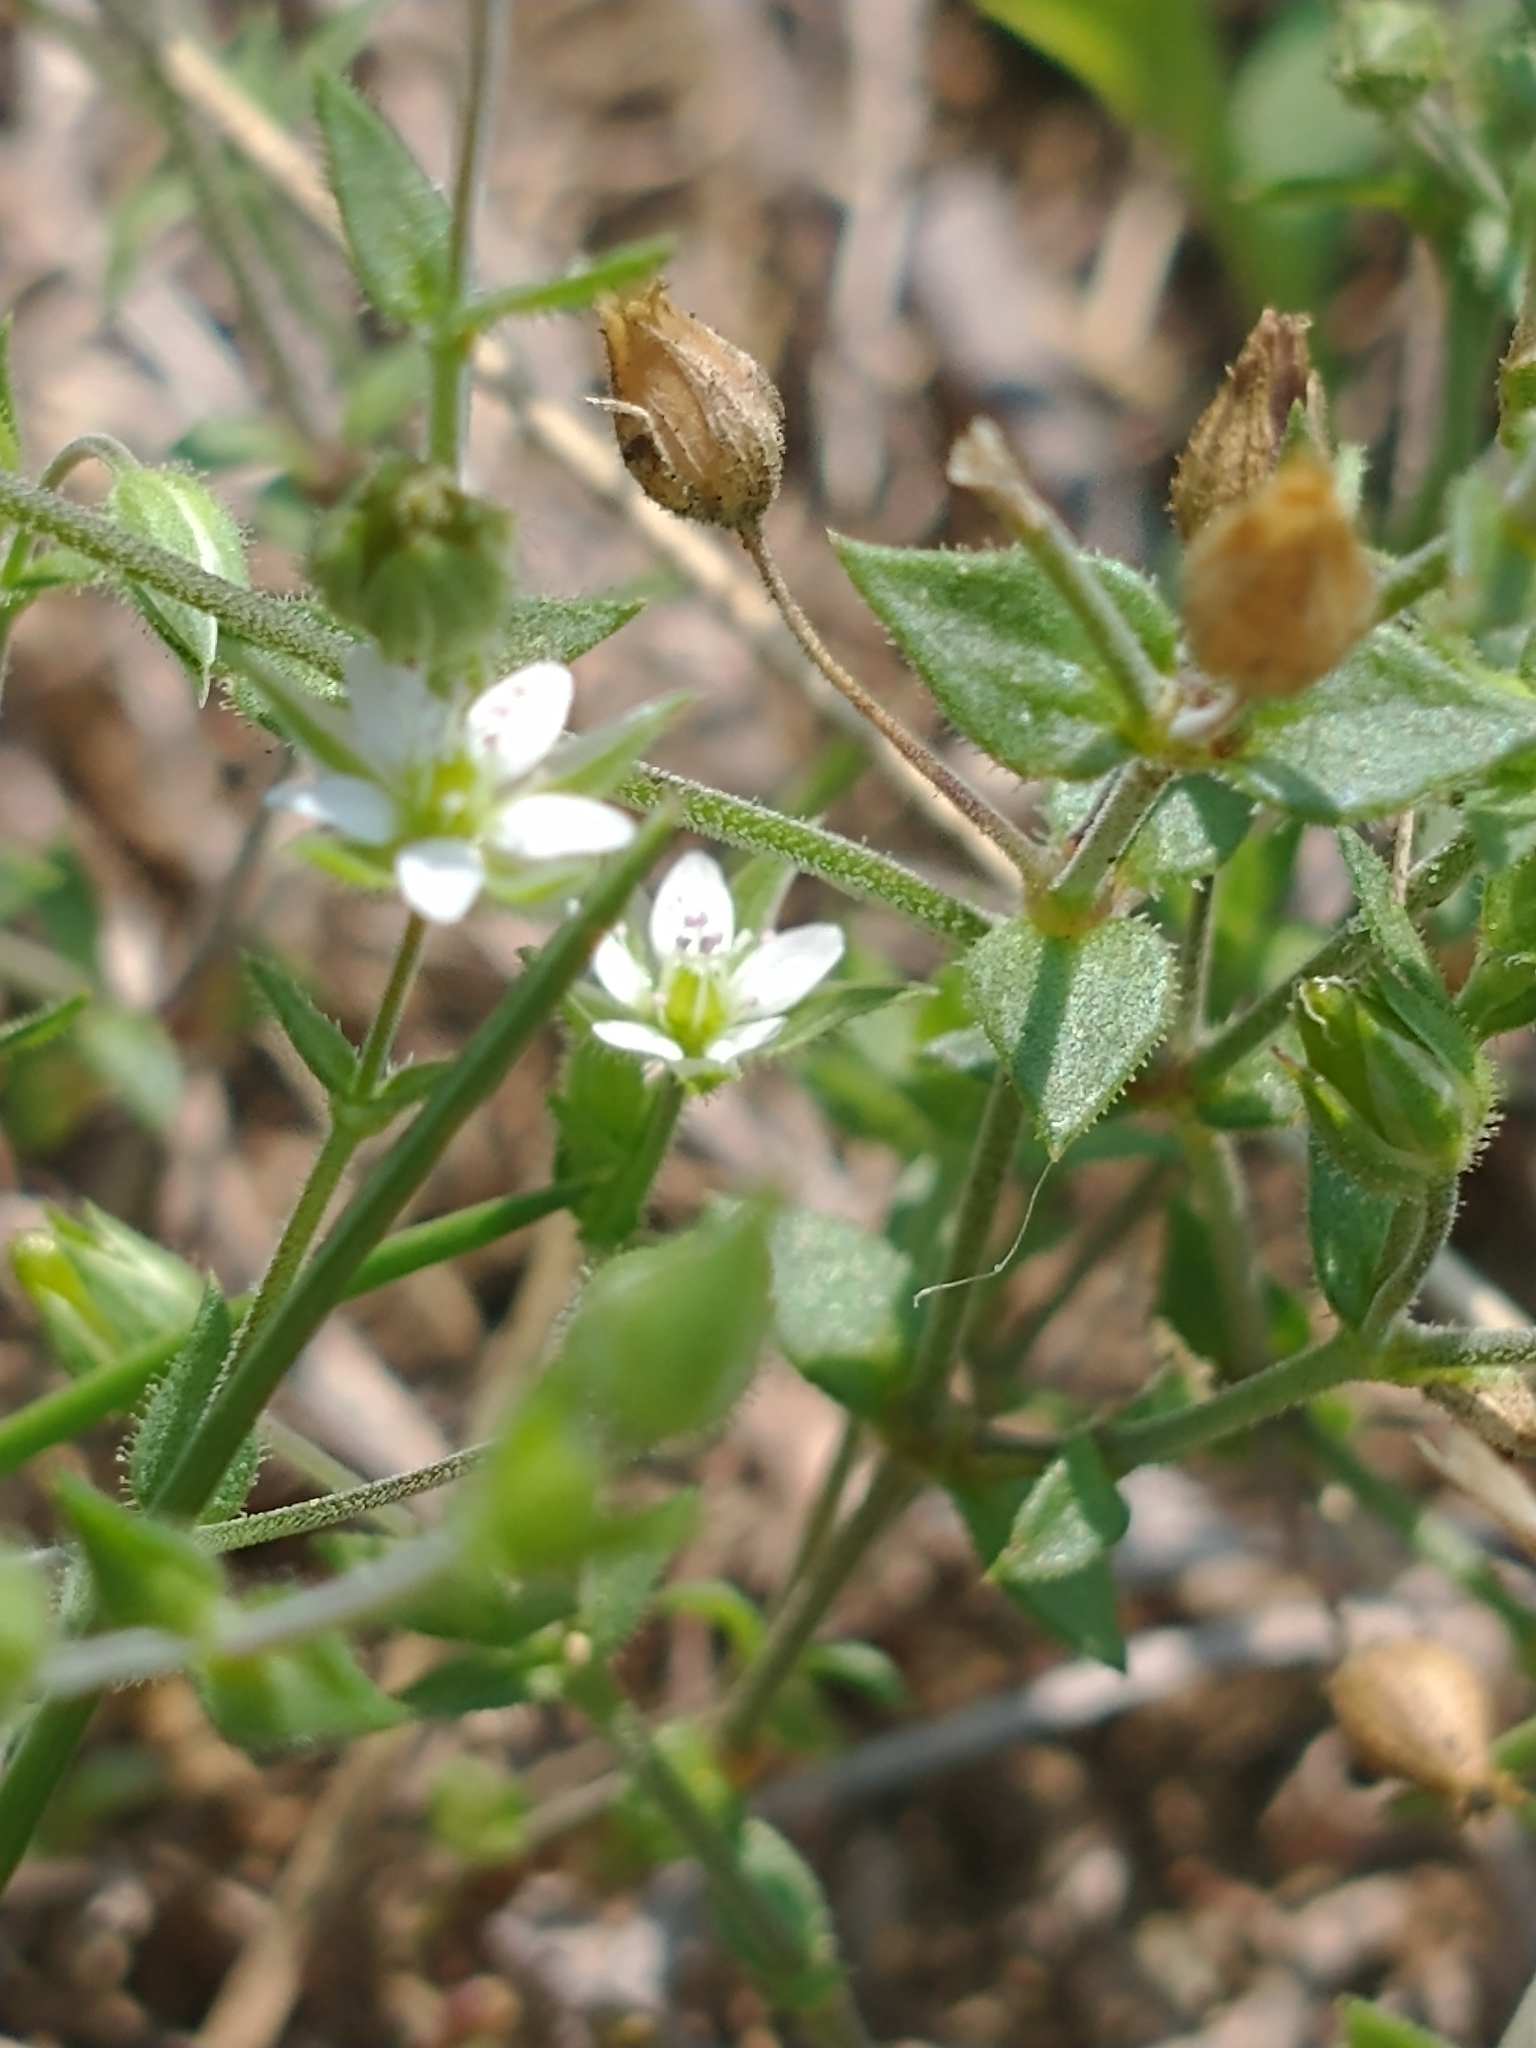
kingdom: Plantae
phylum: Tracheophyta
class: Magnoliopsida
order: Caryophyllales
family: Caryophyllaceae
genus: Arenaria
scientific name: Arenaria serpyllifolia
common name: Thyme-leaved sandwort
